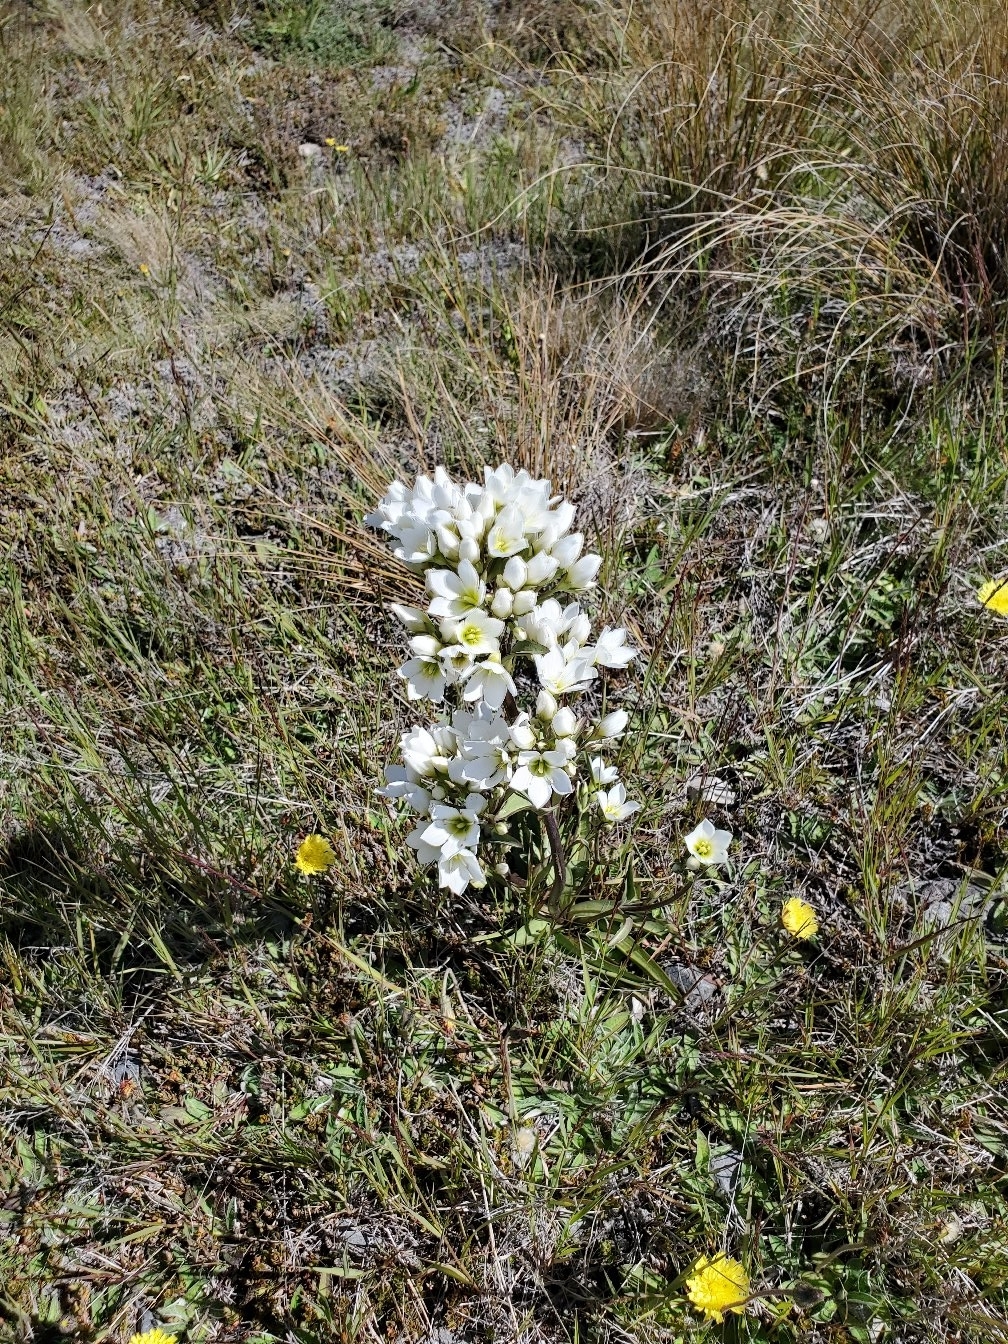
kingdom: Plantae
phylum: Tracheophyta
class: Magnoliopsida
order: Gentianales
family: Gentianaceae
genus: Gentianella
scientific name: Gentianella corymbifera
